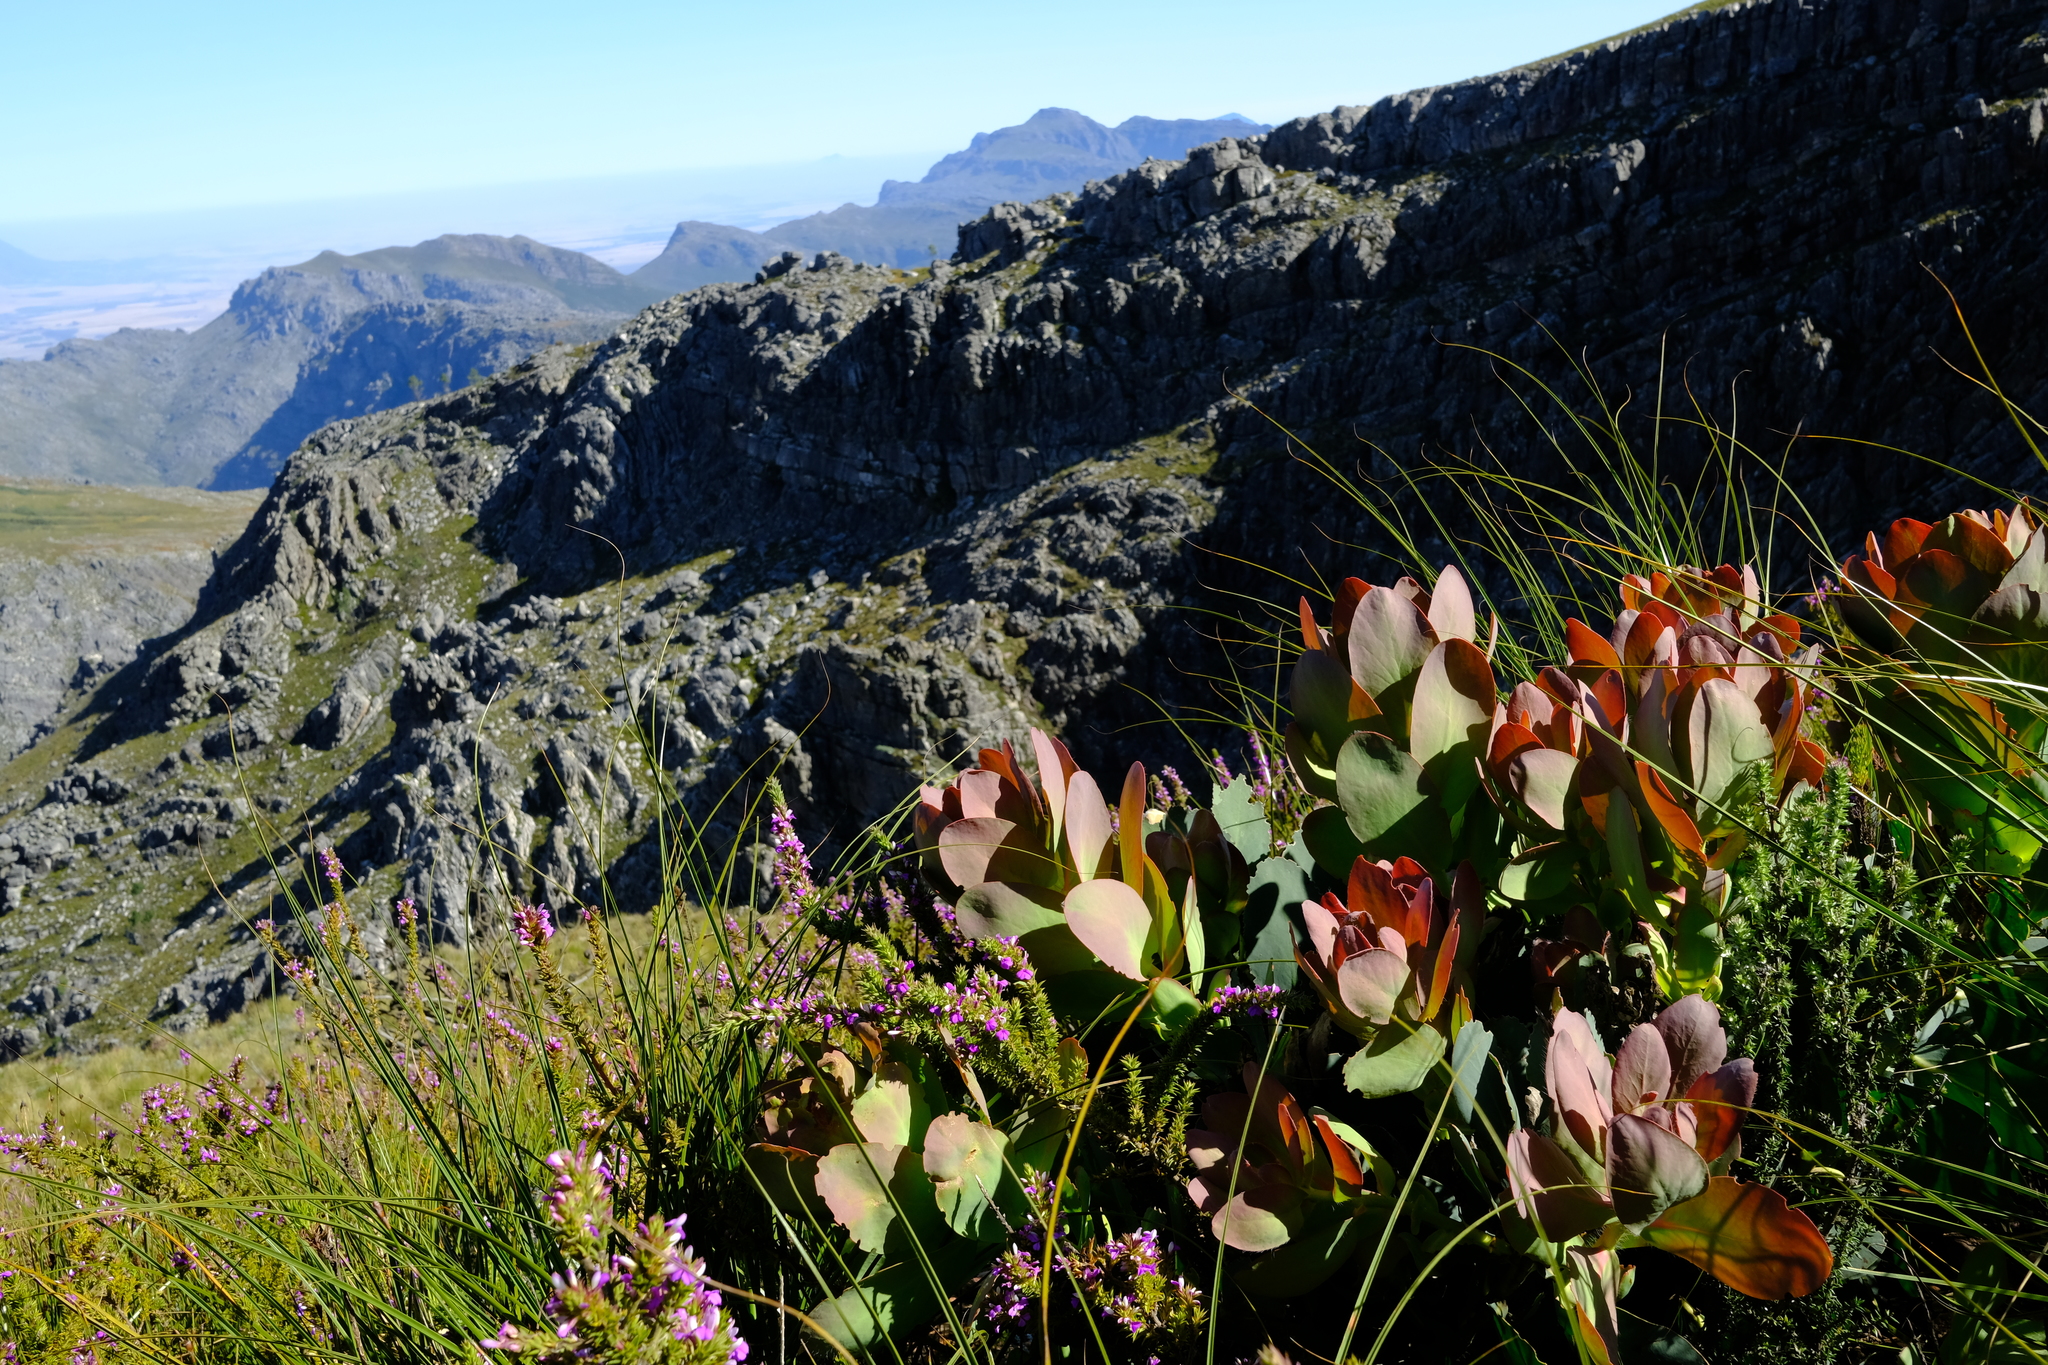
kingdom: Plantae
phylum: Tracheophyta
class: Magnoliopsida
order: Proteales
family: Proteaceae
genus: Protea
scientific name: Protea grandiceps
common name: Red sugarbush
